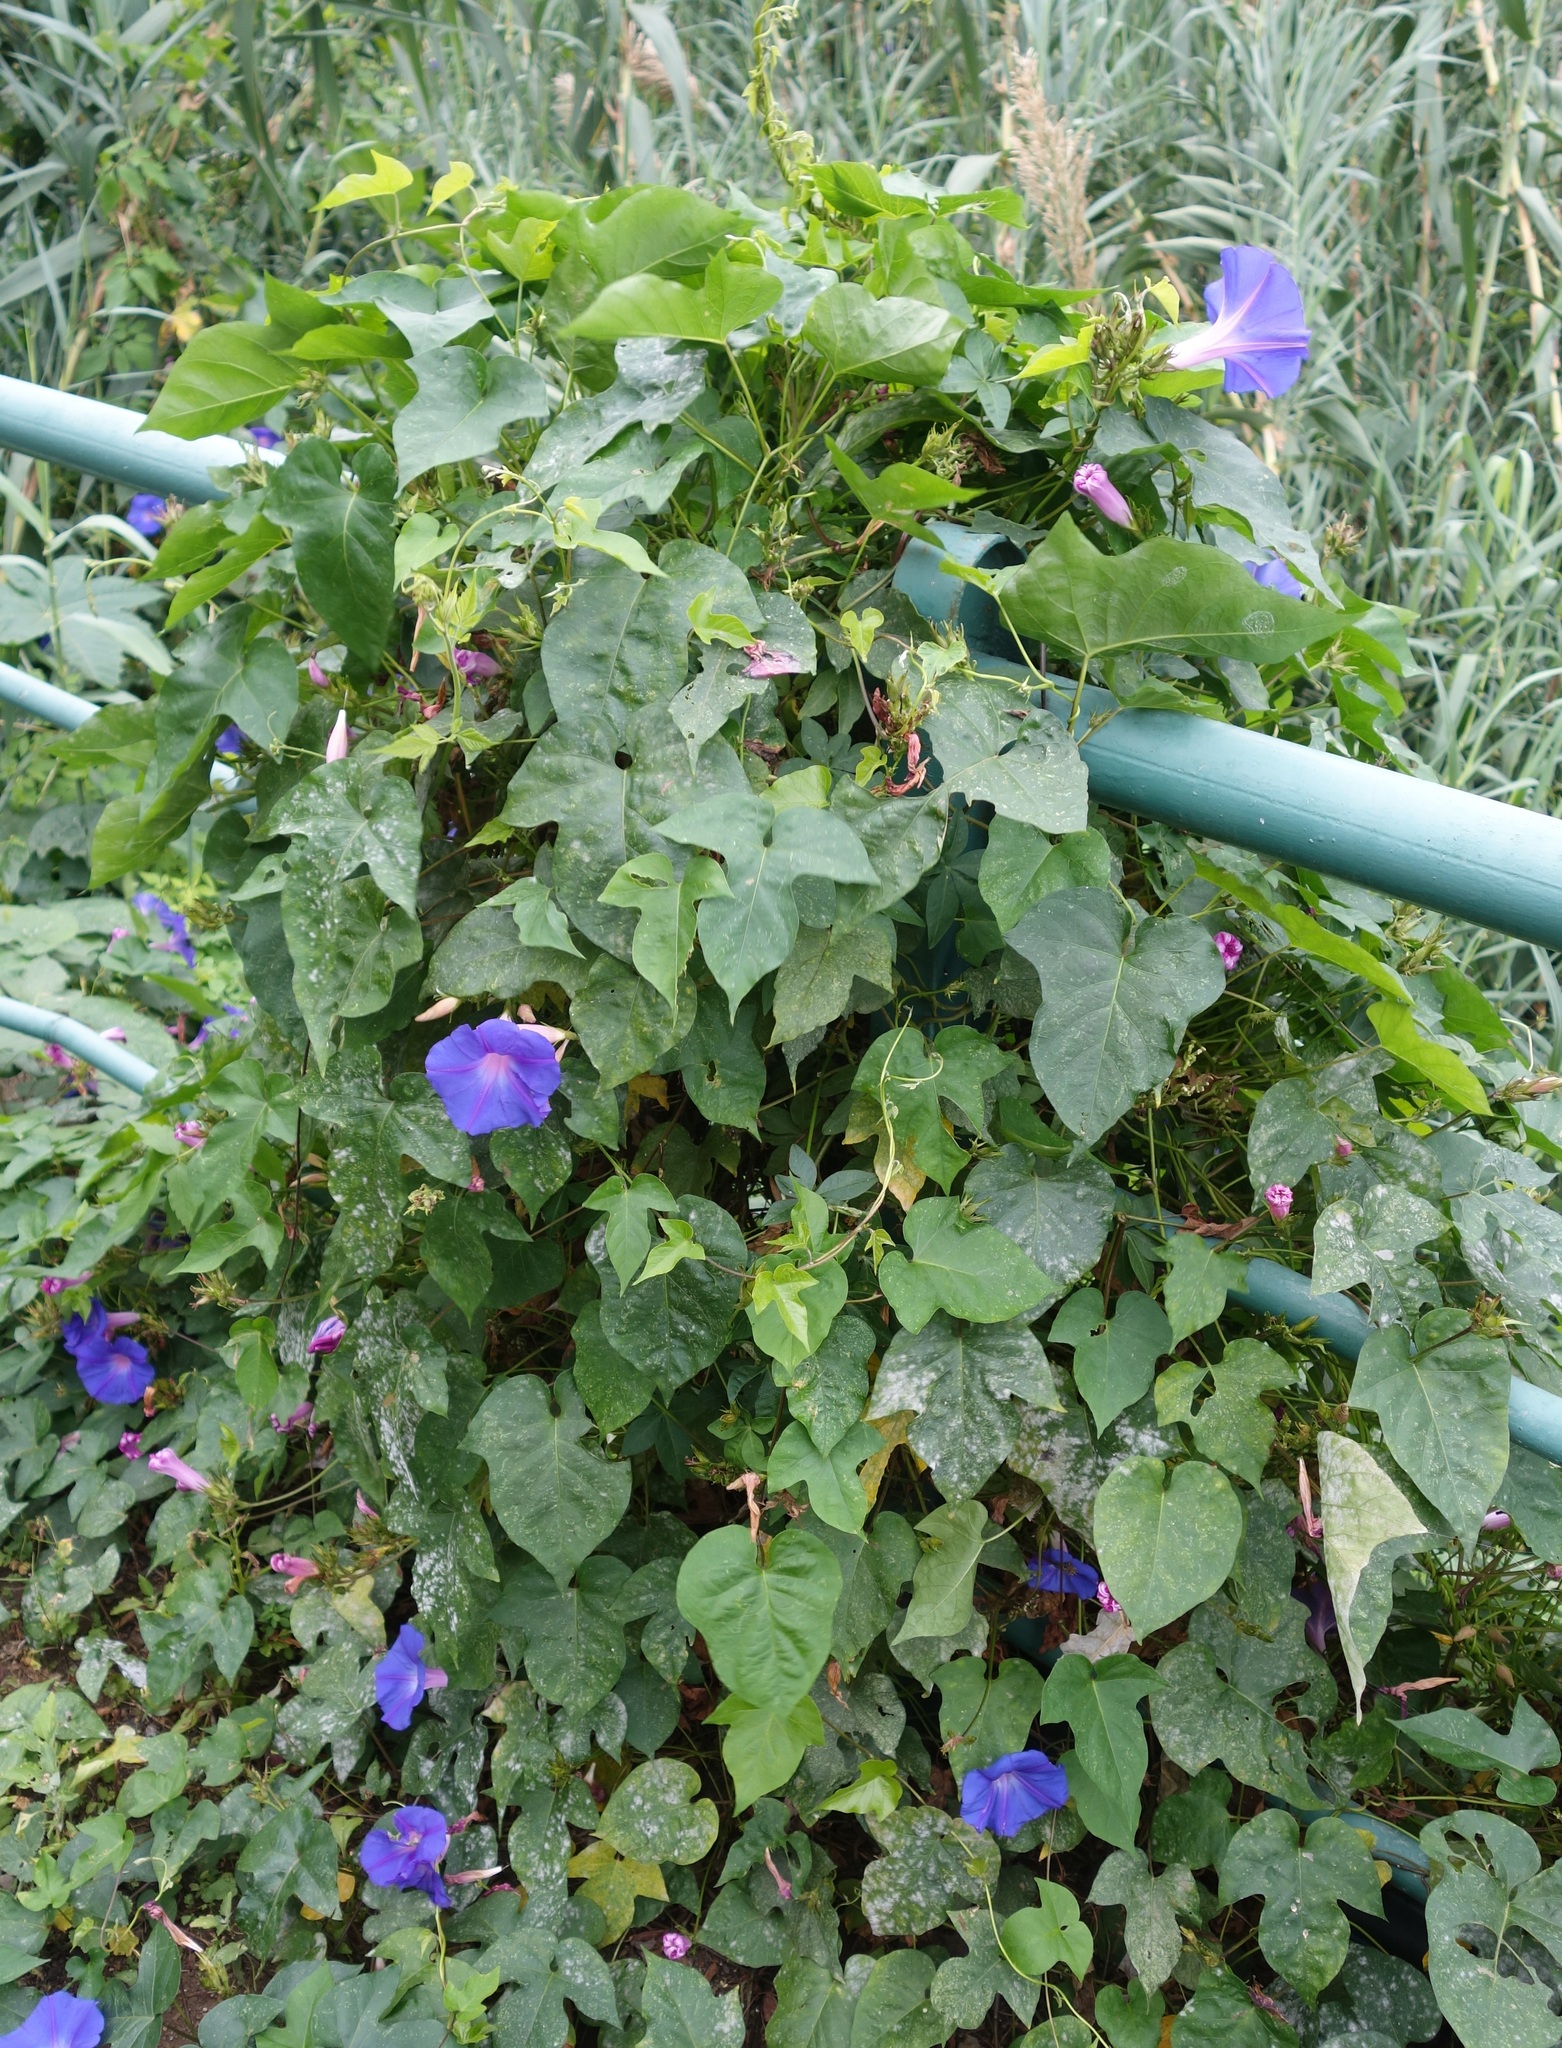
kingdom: Plantae
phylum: Tracheophyta
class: Magnoliopsida
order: Solanales
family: Convolvulaceae
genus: Ipomoea
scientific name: Ipomoea indica
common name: Blue dawnflower
